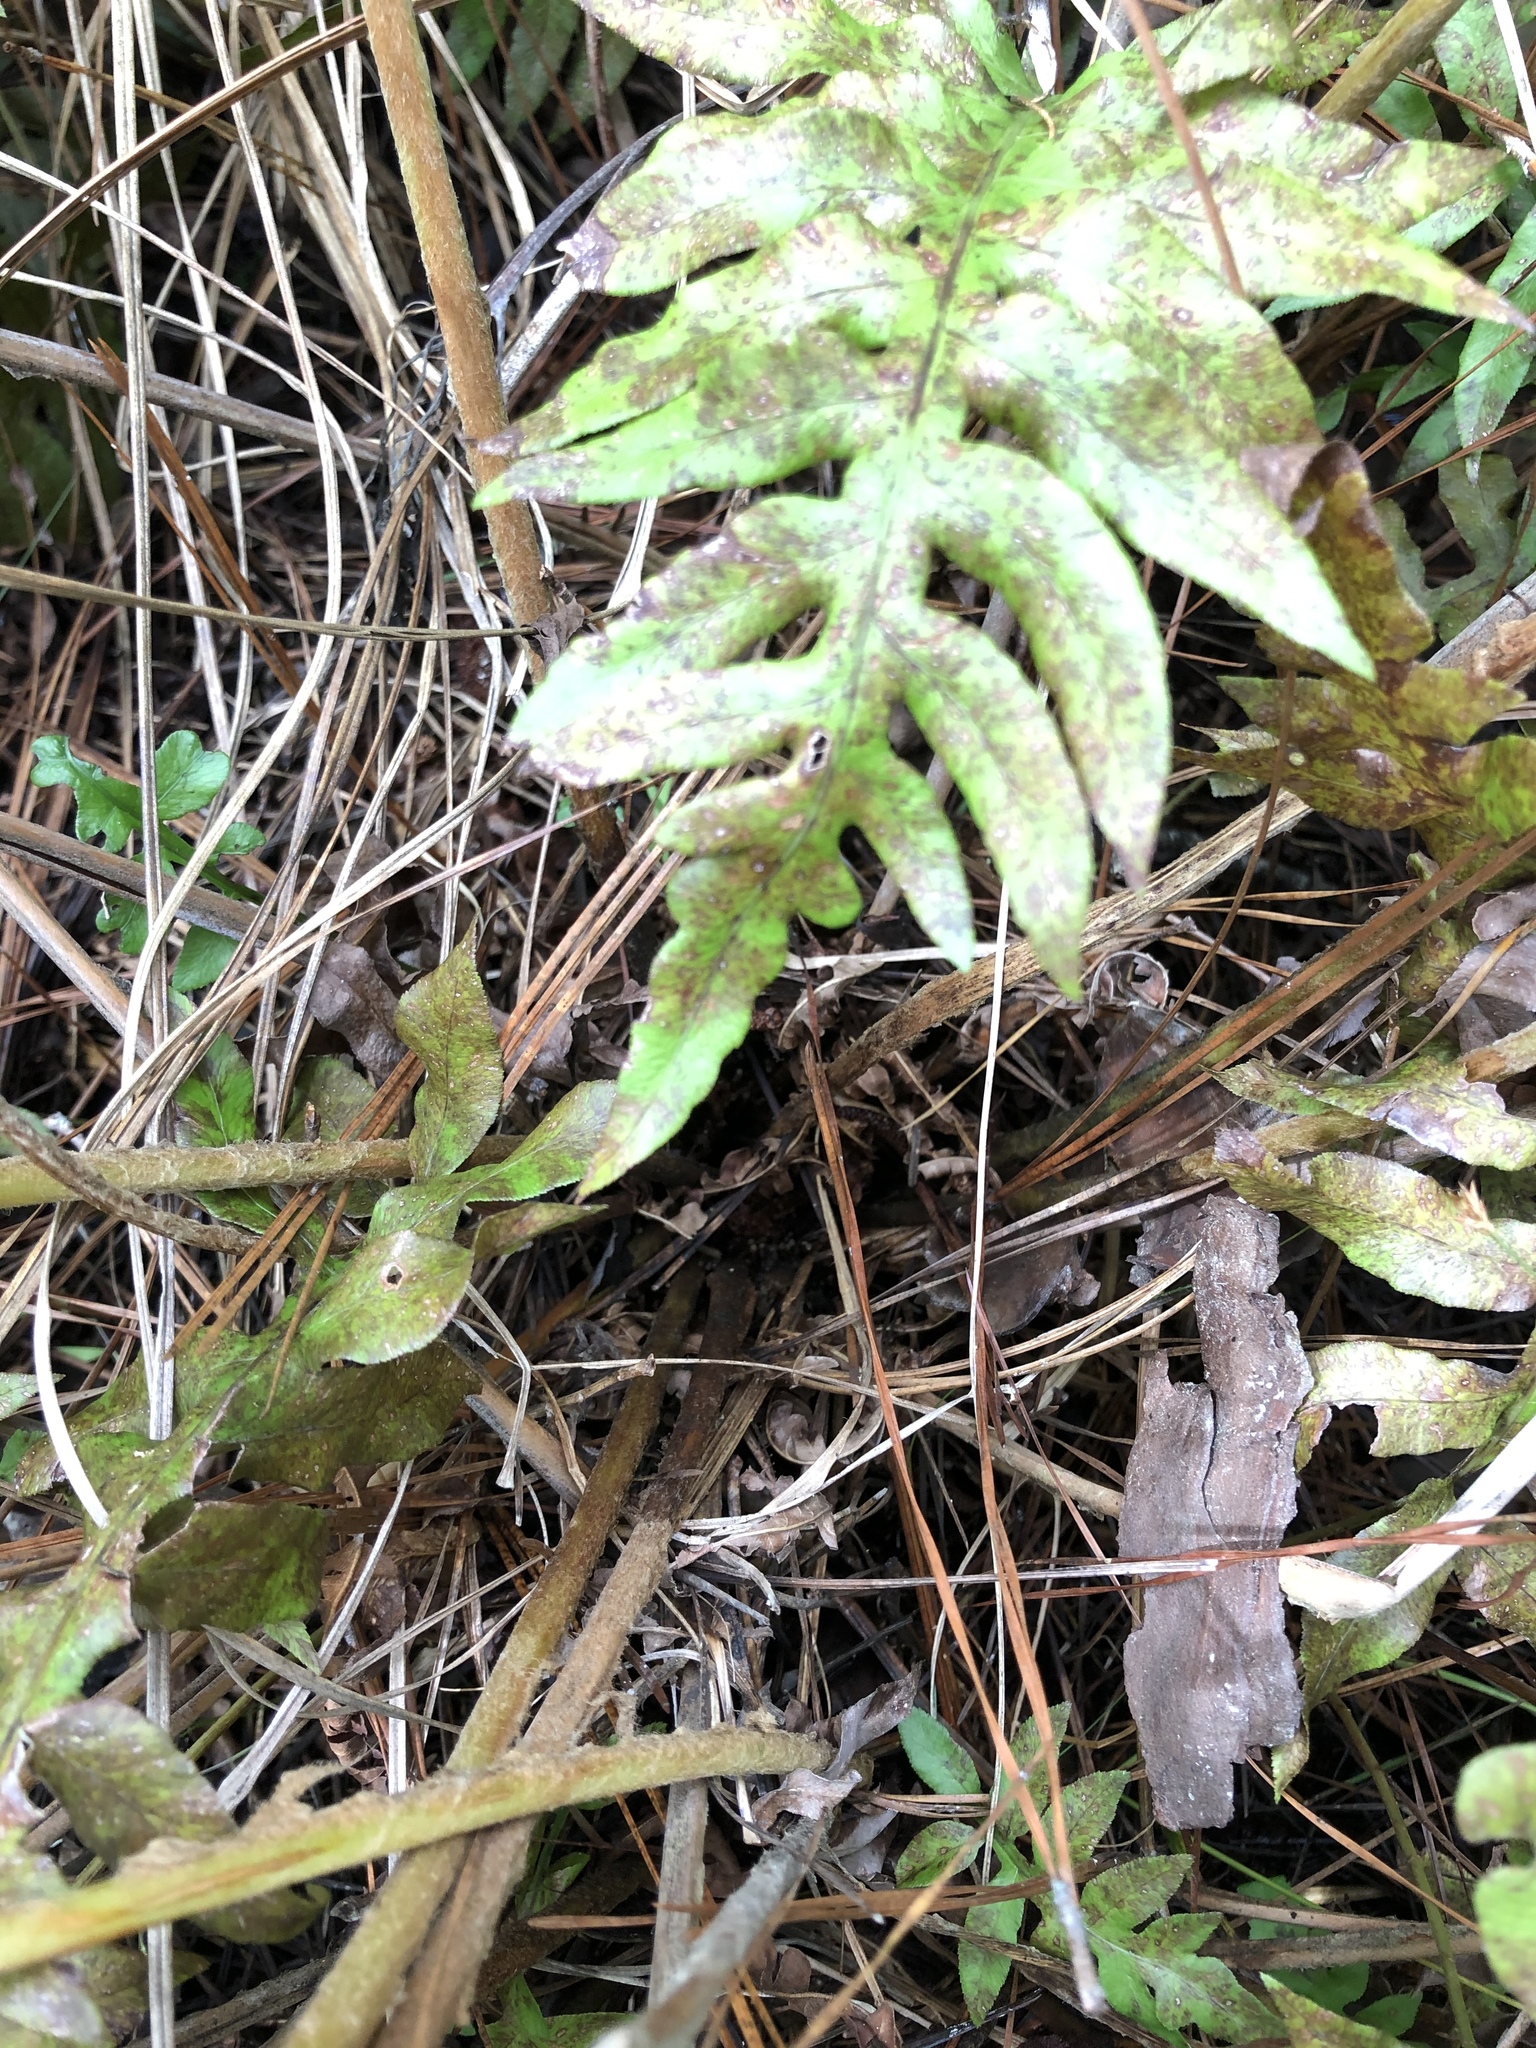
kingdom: Plantae
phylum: Tracheophyta
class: Polypodiopsida
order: Osmundales
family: Osmundaceae
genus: Osmundastrum
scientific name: Osmundastrum cinnamomeum
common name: Cinnamon fern
